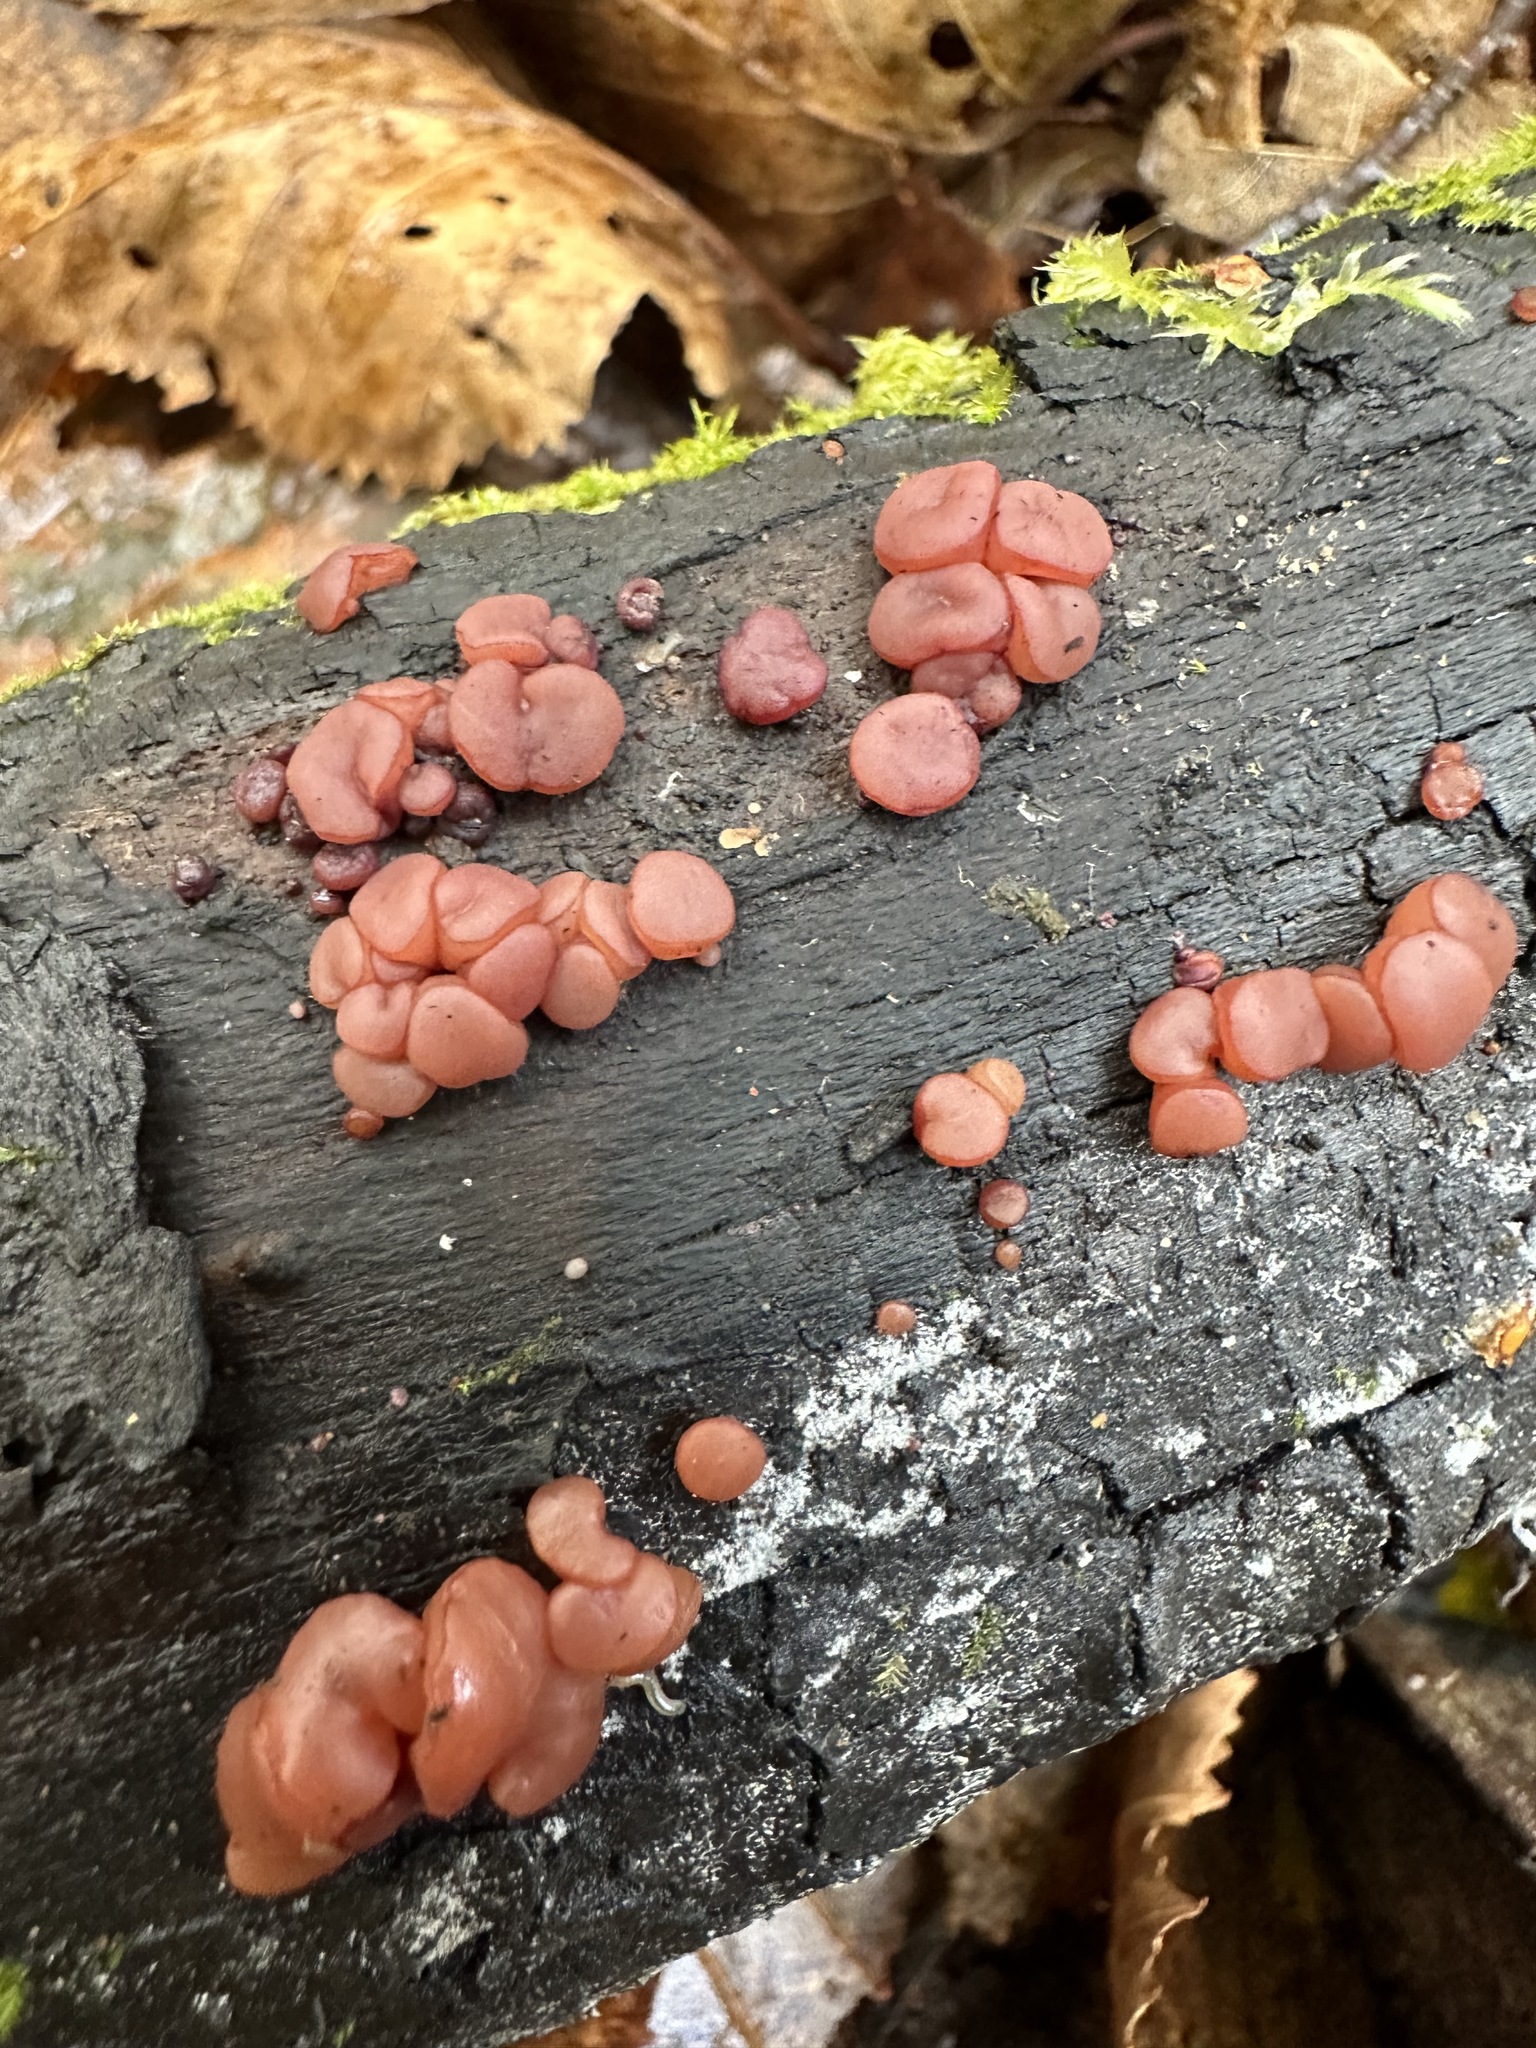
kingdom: Fungi
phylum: Ascomycota
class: Leotiomycetes
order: Helotiales
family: Gelatinodiscaceae
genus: Ascocoryne
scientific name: Ascocoryne sarcoides
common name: Purple jellydisc
